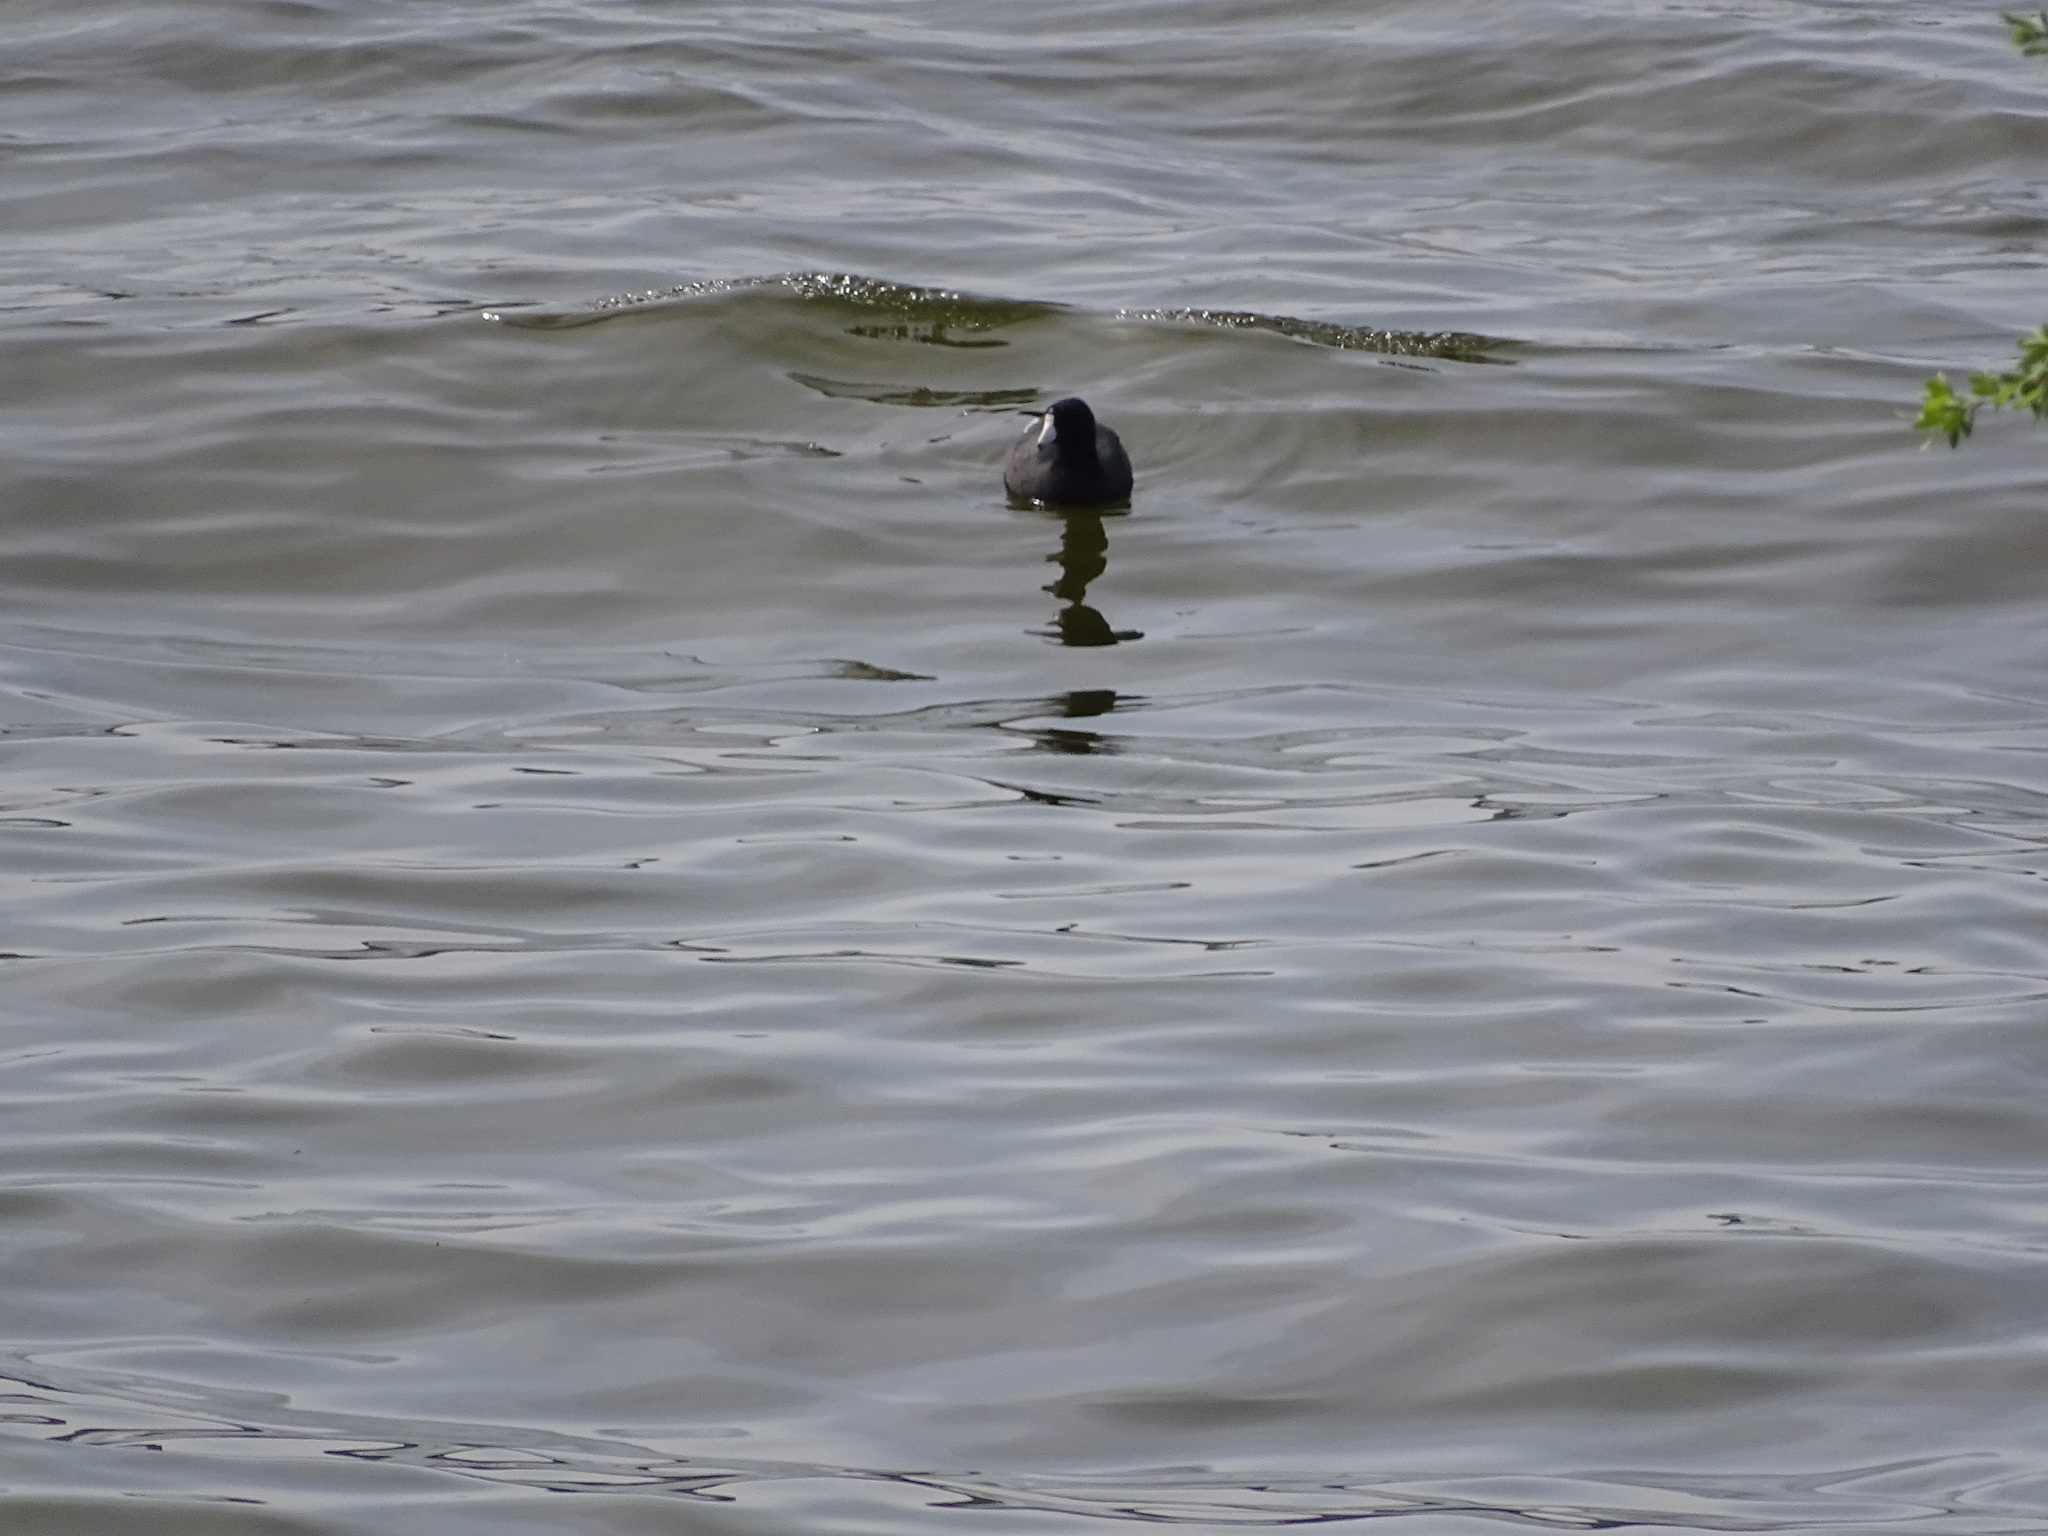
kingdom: Animalia
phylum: Chordata
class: Aves
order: Gruiformes
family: Rallidae
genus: Fulica
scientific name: Fulica americana
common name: American coot
